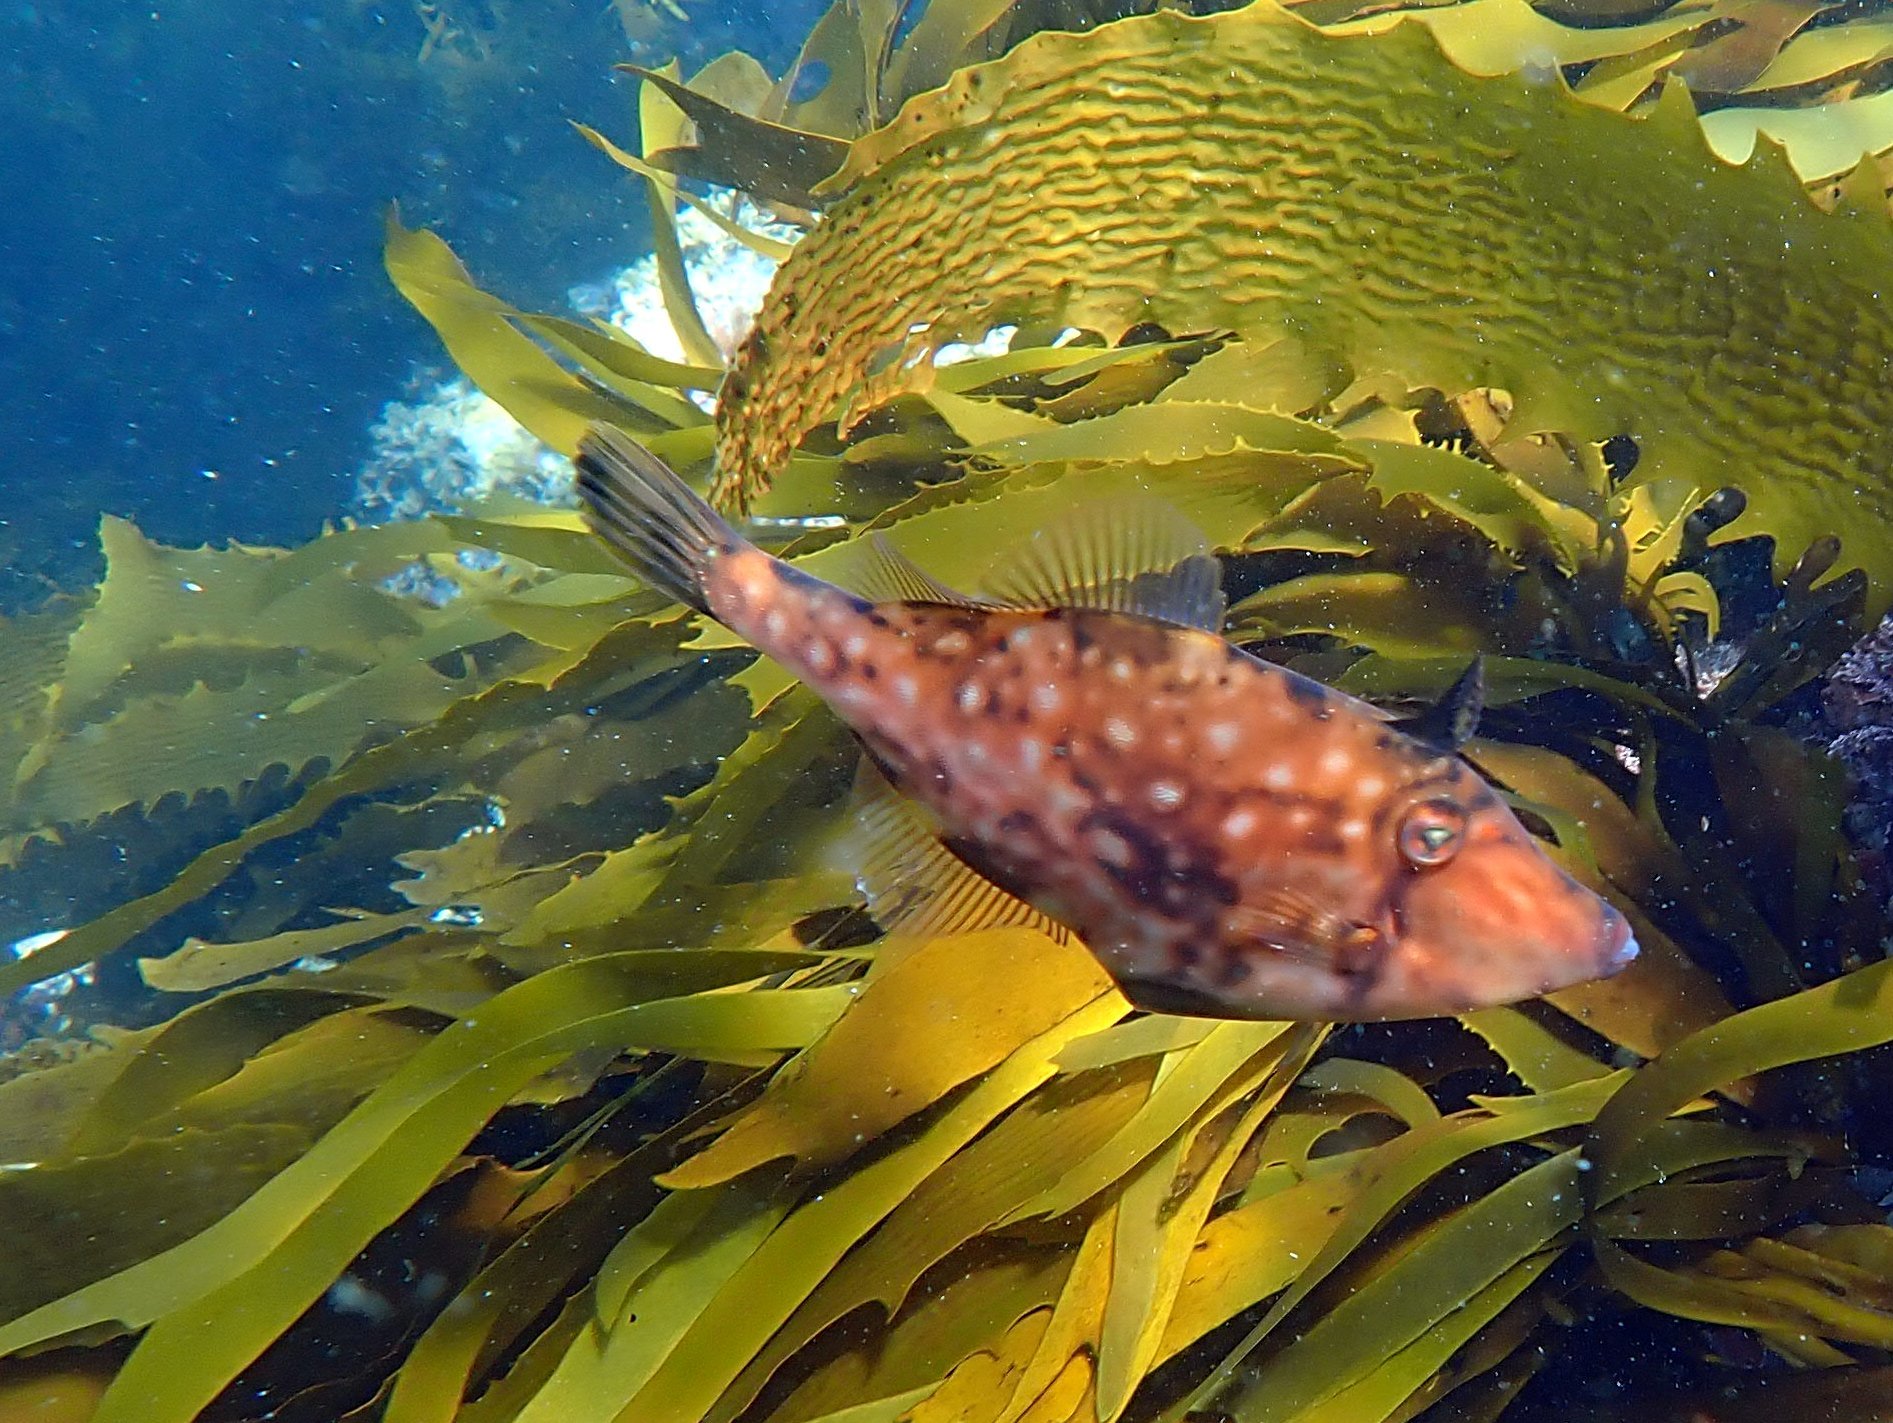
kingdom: Animalia
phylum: Chordata
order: Tetraodontiformes
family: Monacanthidae
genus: Acanthaluteres
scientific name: Acanthaluteres vittiger
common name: Brown leatherjacket
